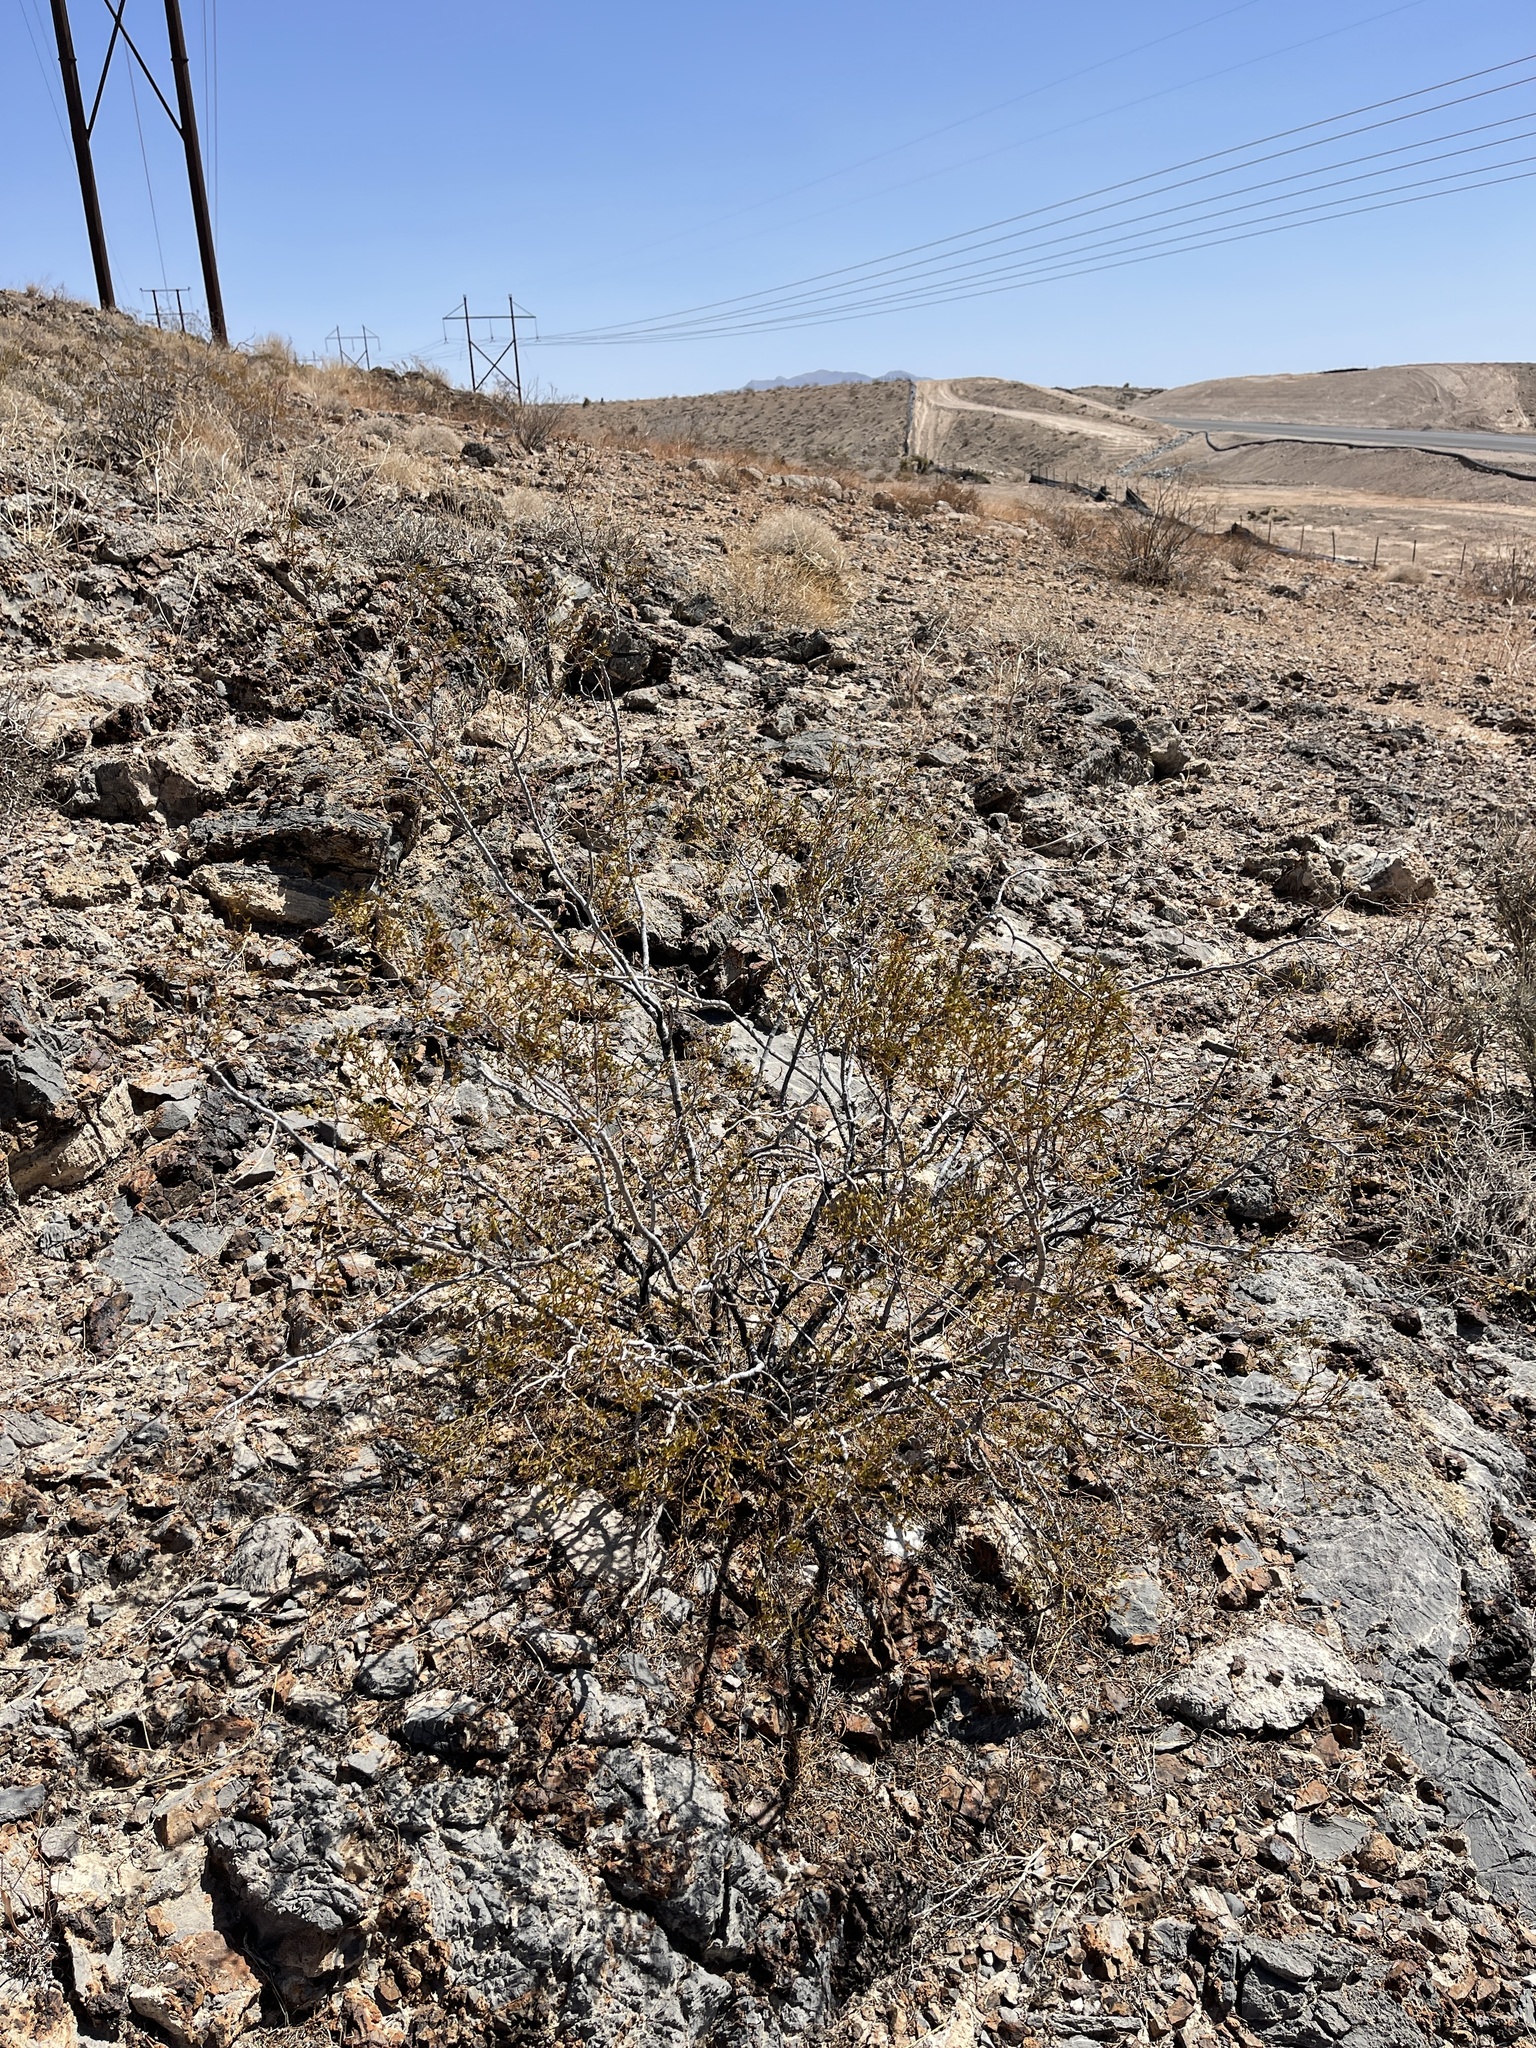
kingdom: Plantae
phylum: Tracheophyta
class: Magnoliopsida
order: Zygophyllales
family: Zygophyllaceae
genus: Larrea
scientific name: Larrea tridentata
